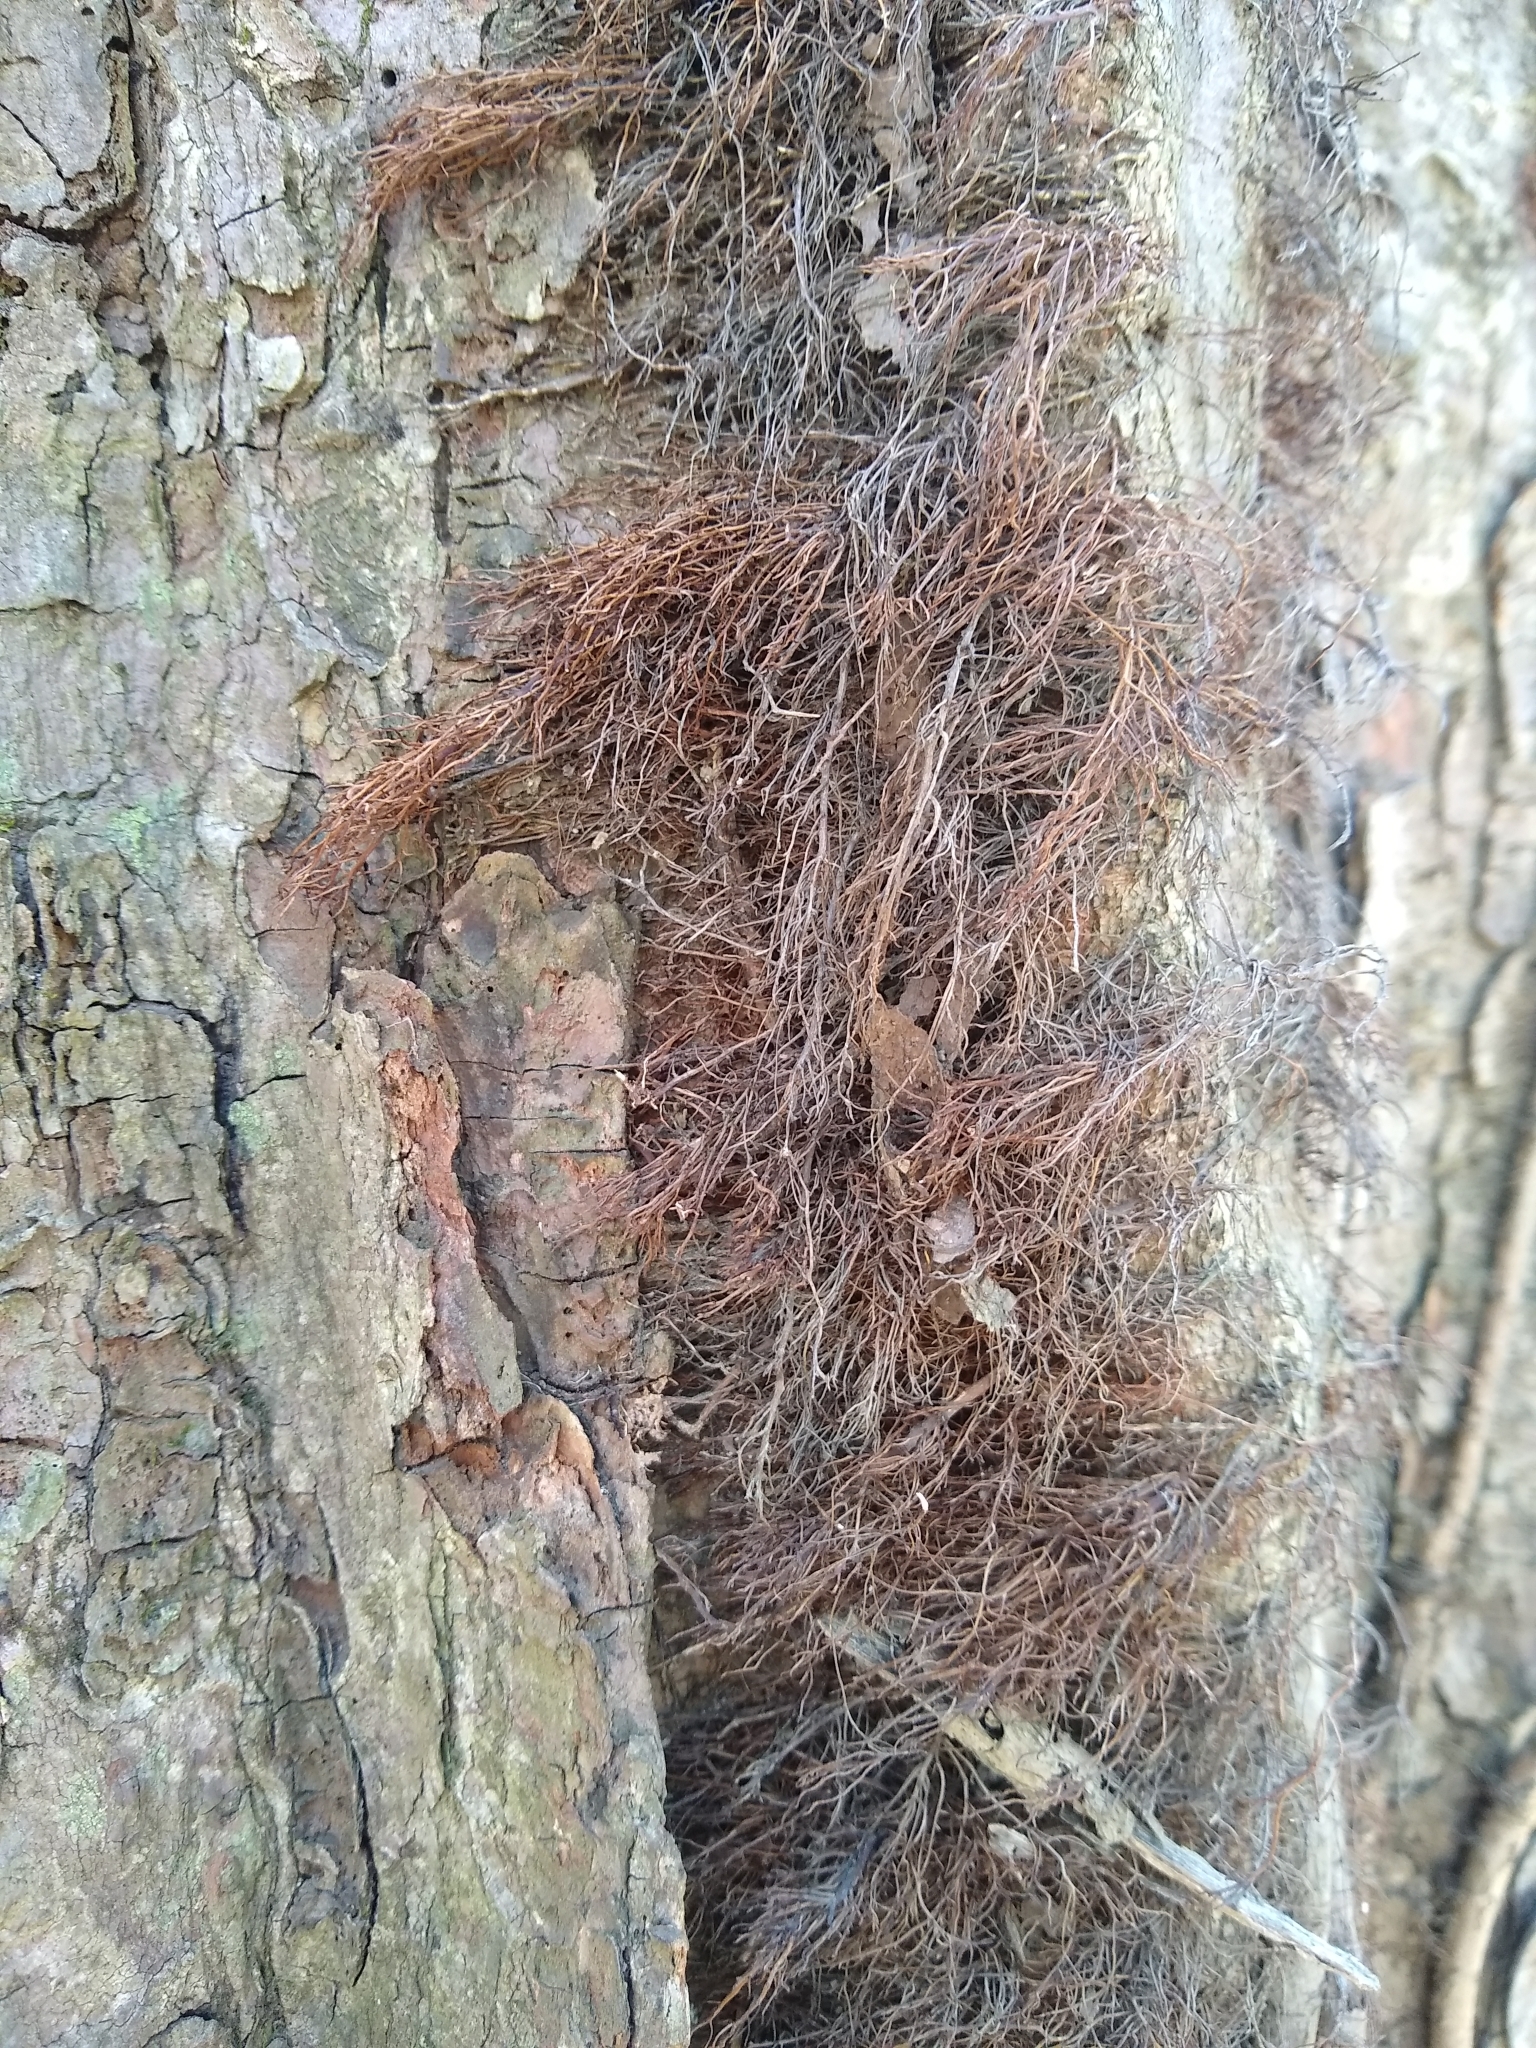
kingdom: Plantae
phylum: Tracheophyta
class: Magnoliopsida
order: Sapindales
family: Anacardiaceae
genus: Toxicodendron
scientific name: Toxicodendron radicans
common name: Poison ivy
